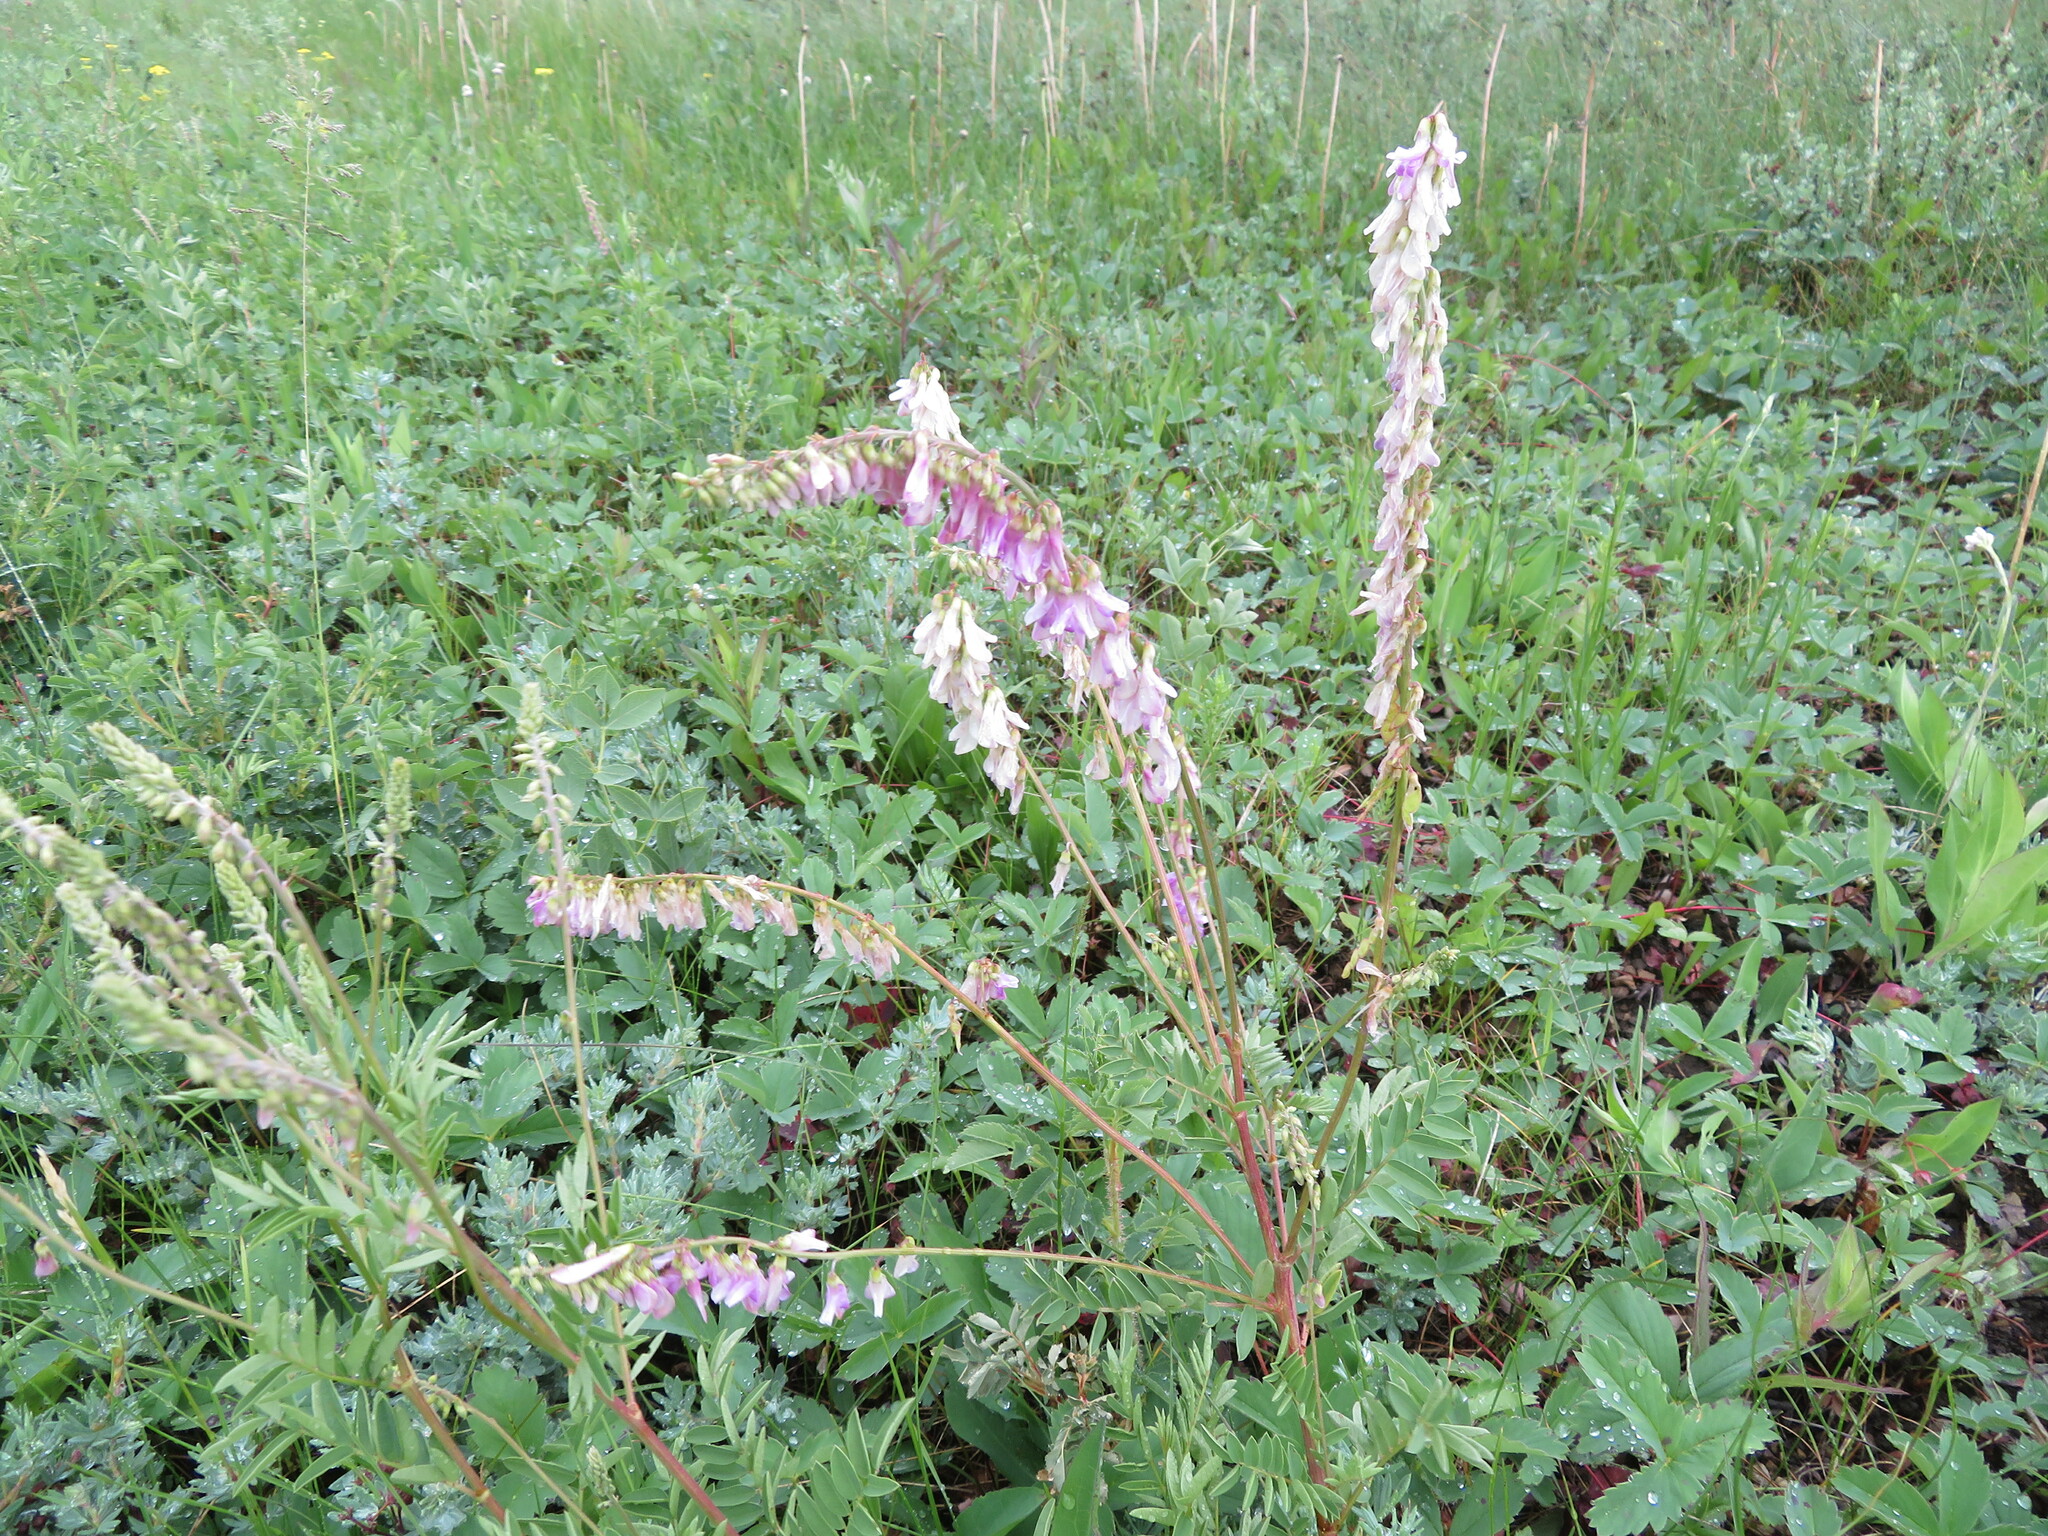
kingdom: Plantae
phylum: Tracheophyta
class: Magnoliopsida
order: Fabales
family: Fabaceae
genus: Hedysarum
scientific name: Hedysarum alpinum
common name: Alpine sweet-vetch
